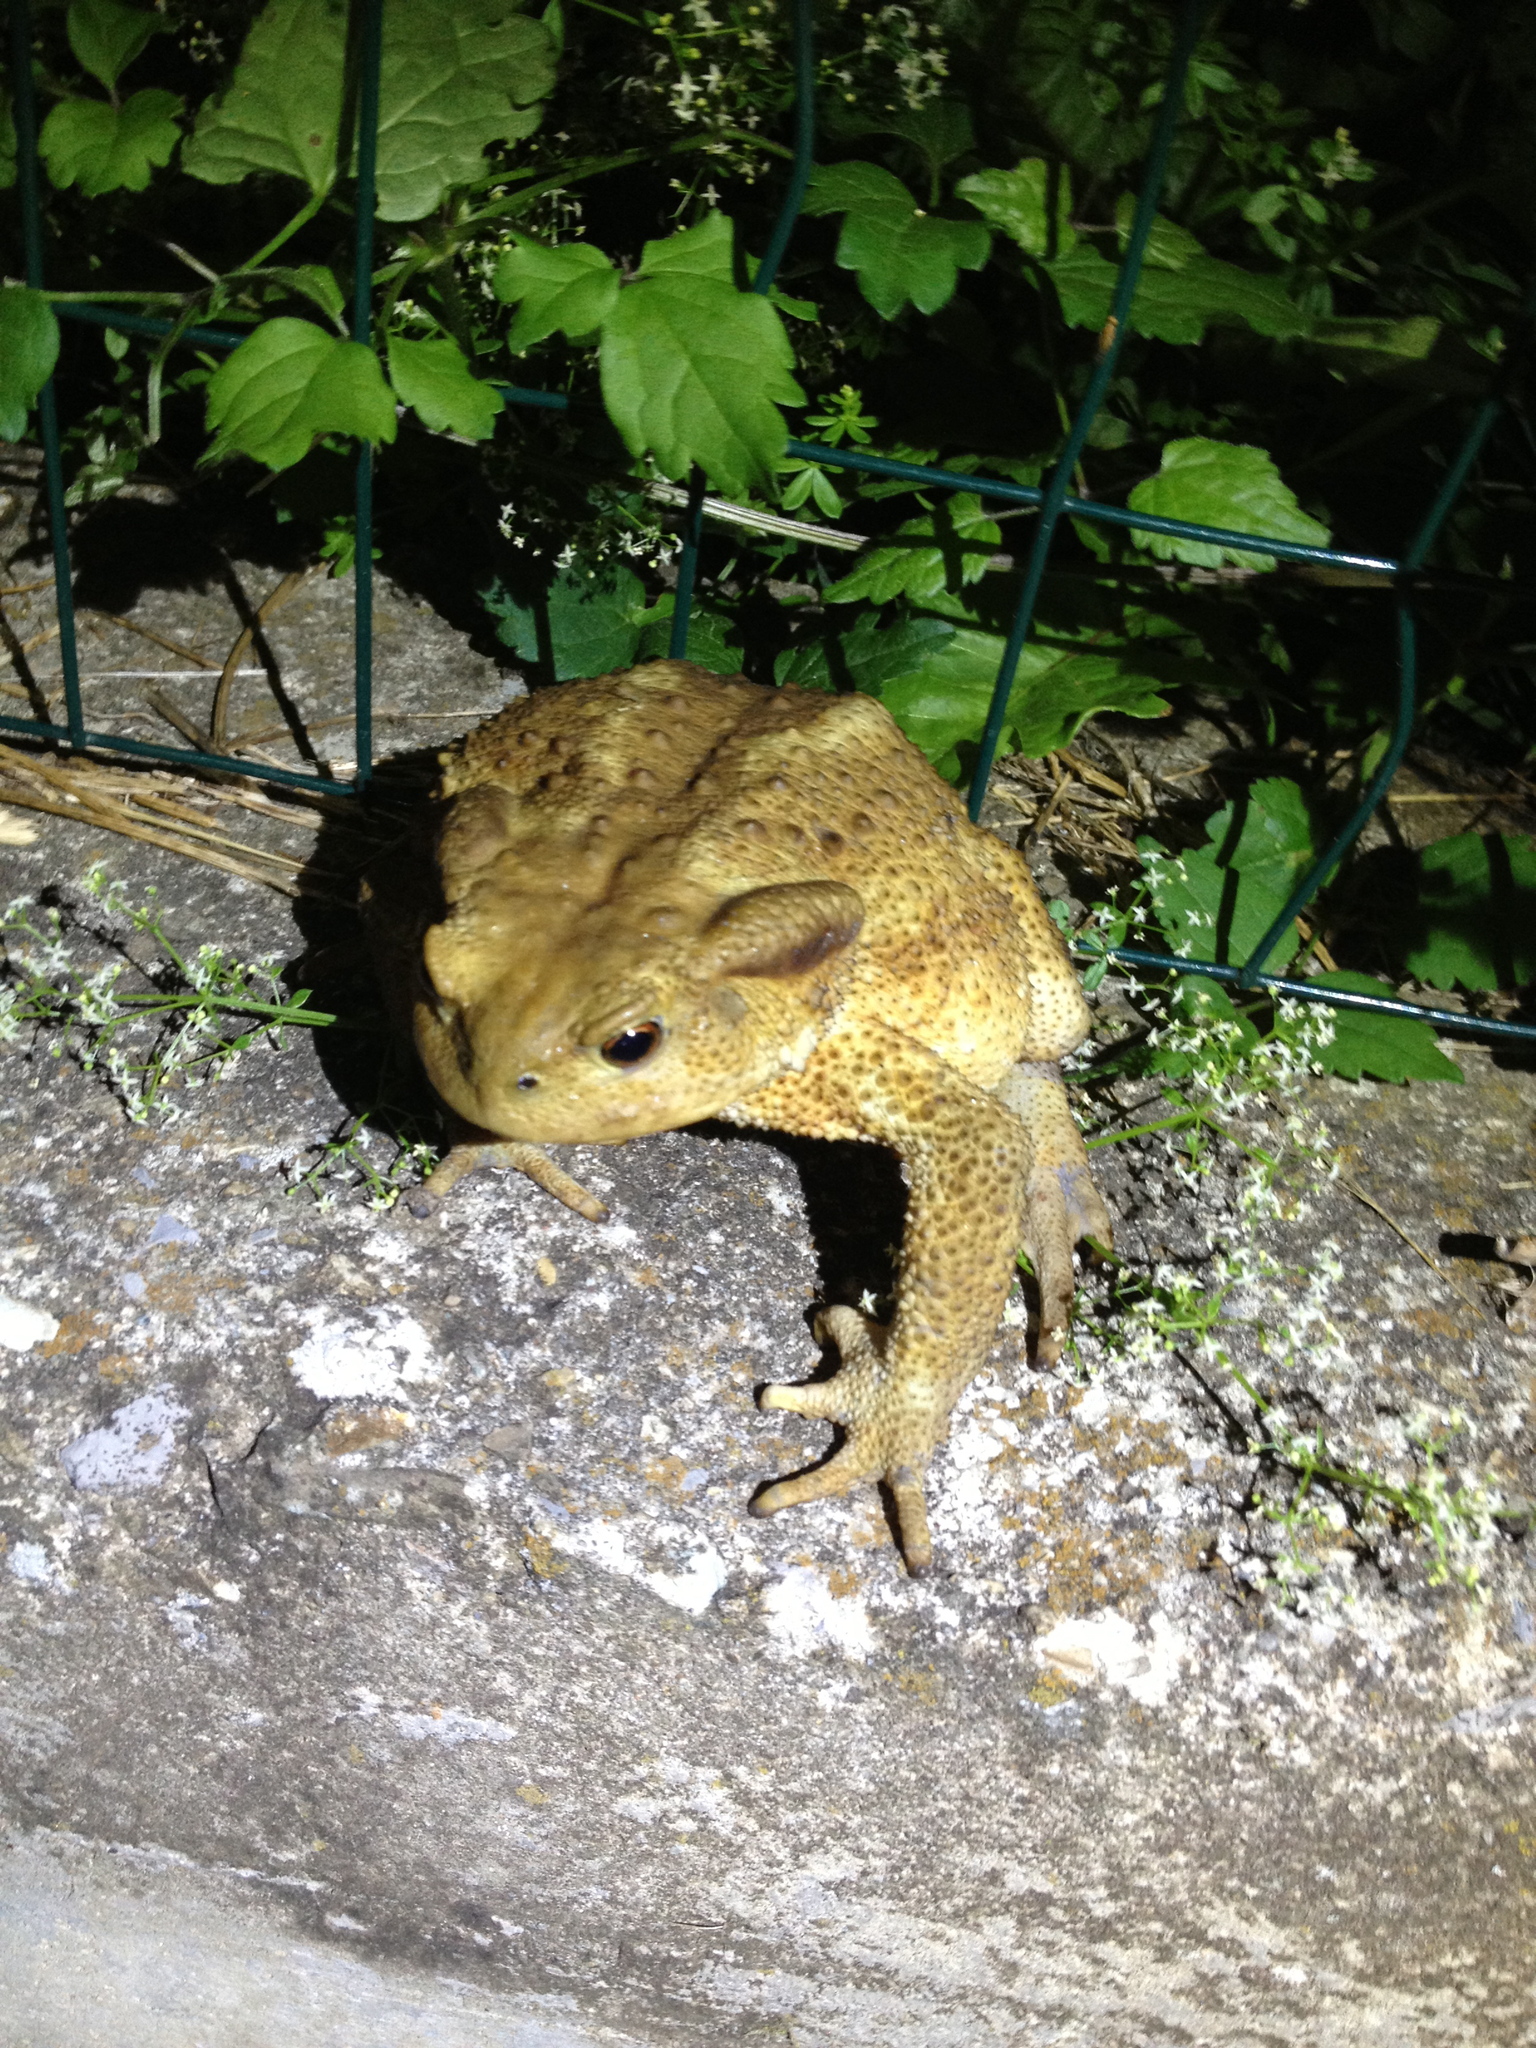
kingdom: Animalia
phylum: Chordata
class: Amphibia
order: Anura
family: Bufonidae
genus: Bufo
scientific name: Bufo bufo
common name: Common toad
